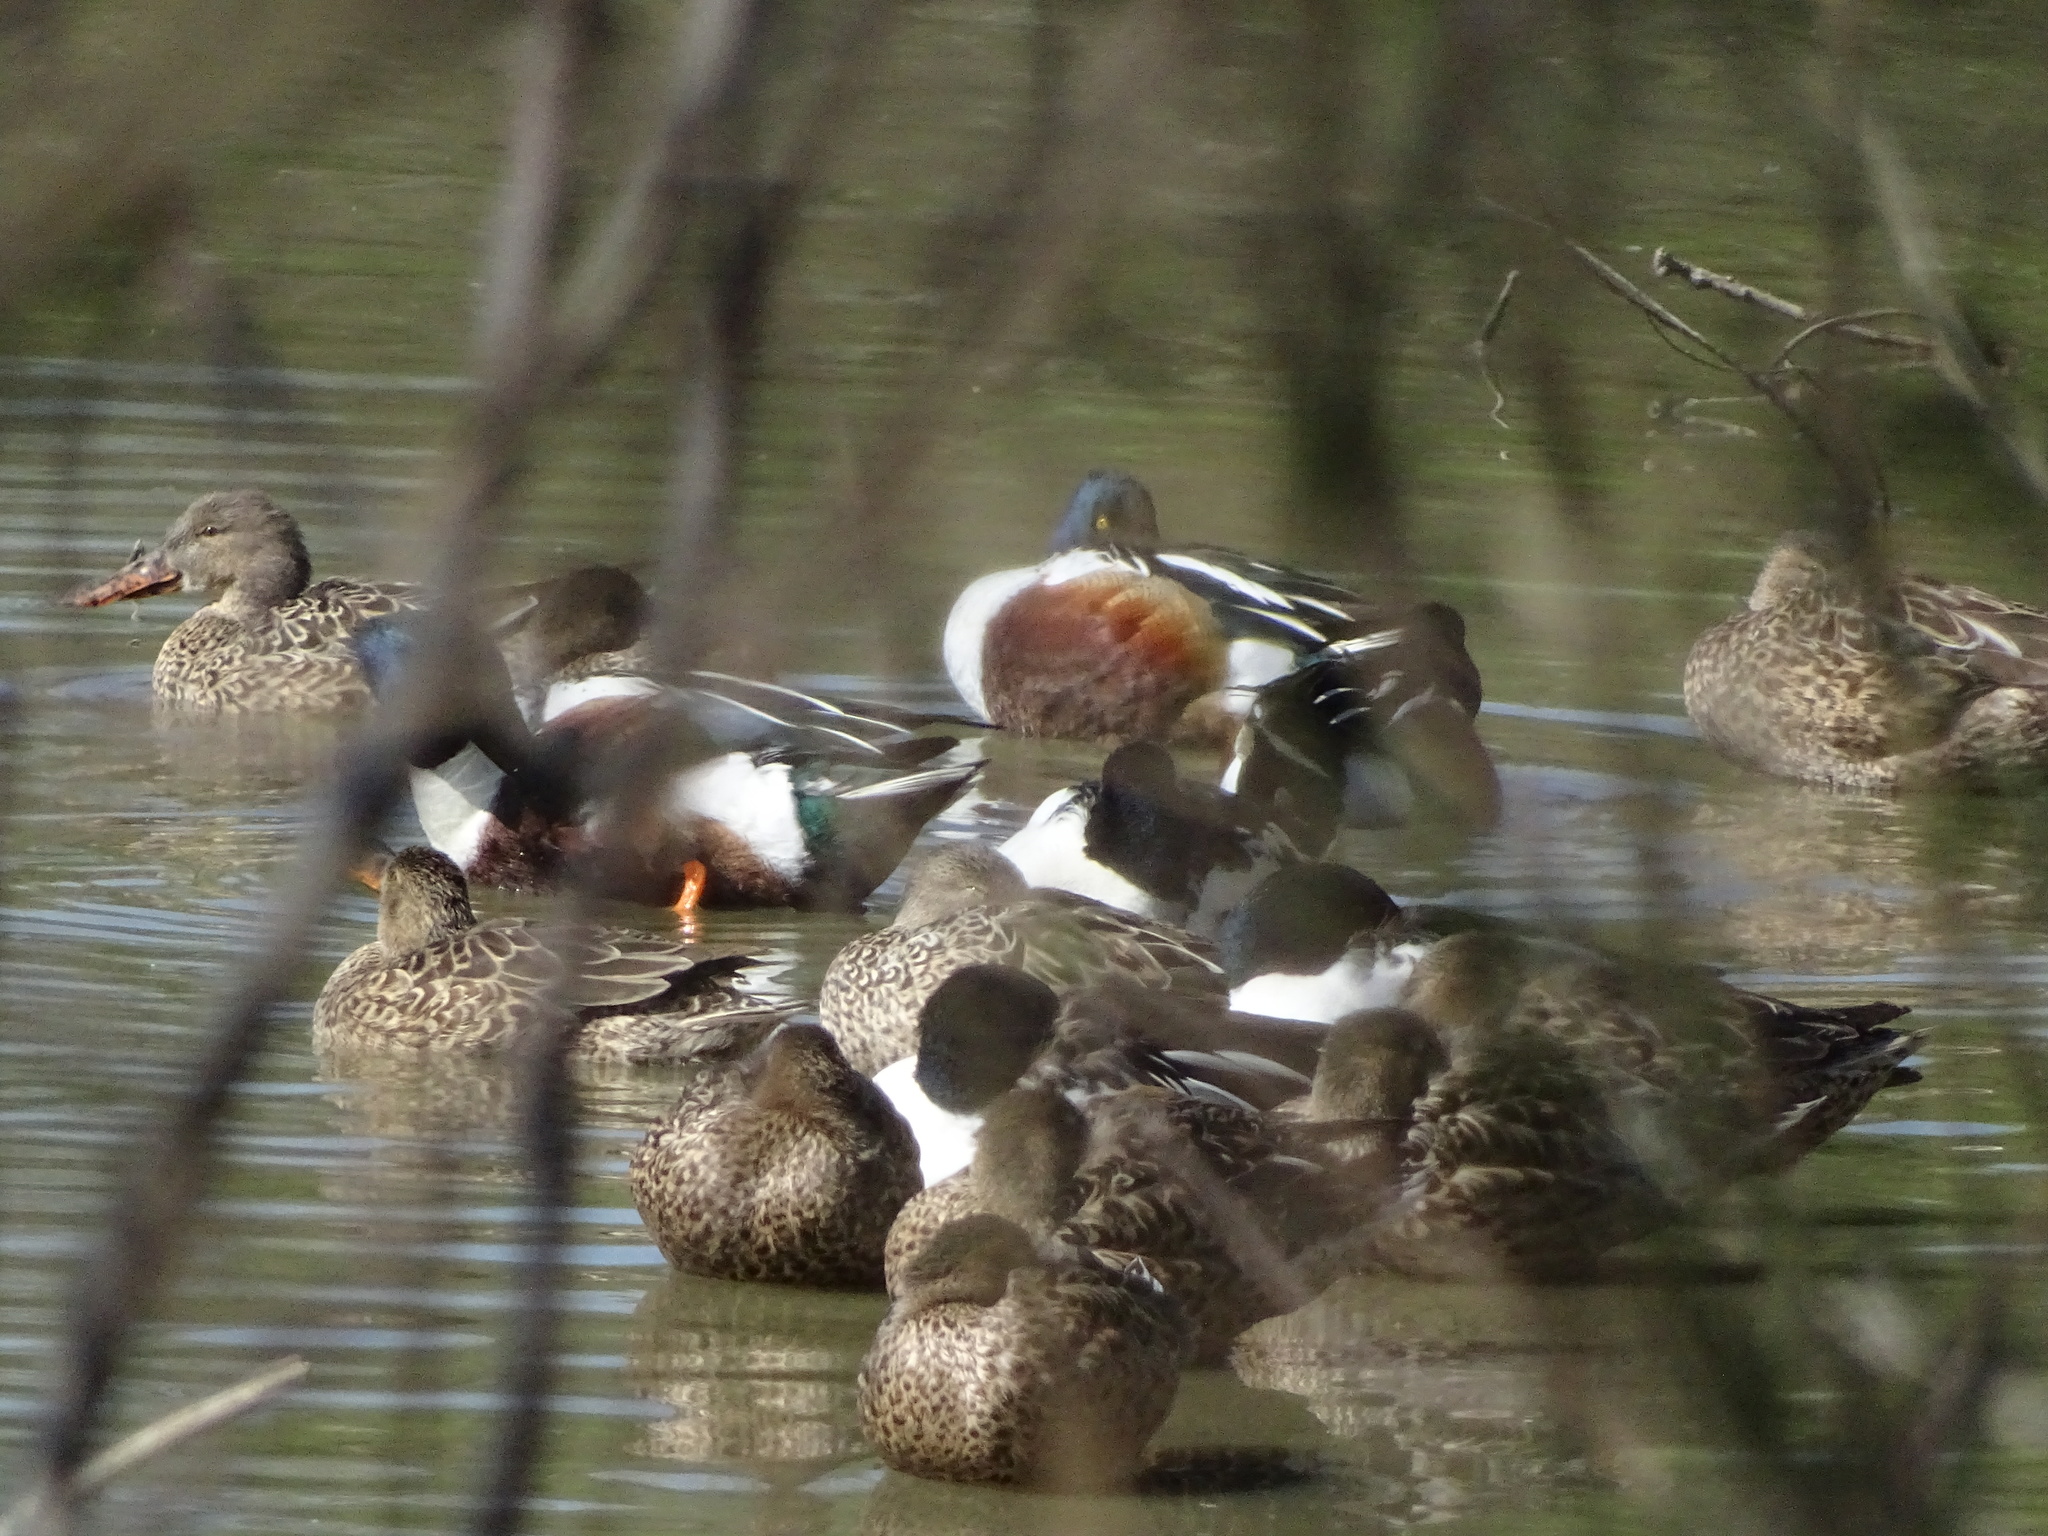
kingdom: Animalia
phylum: Chordata
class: Aves
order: Anseriformes
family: Anatidae
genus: Spatula
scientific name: Spatula clypeata
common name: Northern shoveler
